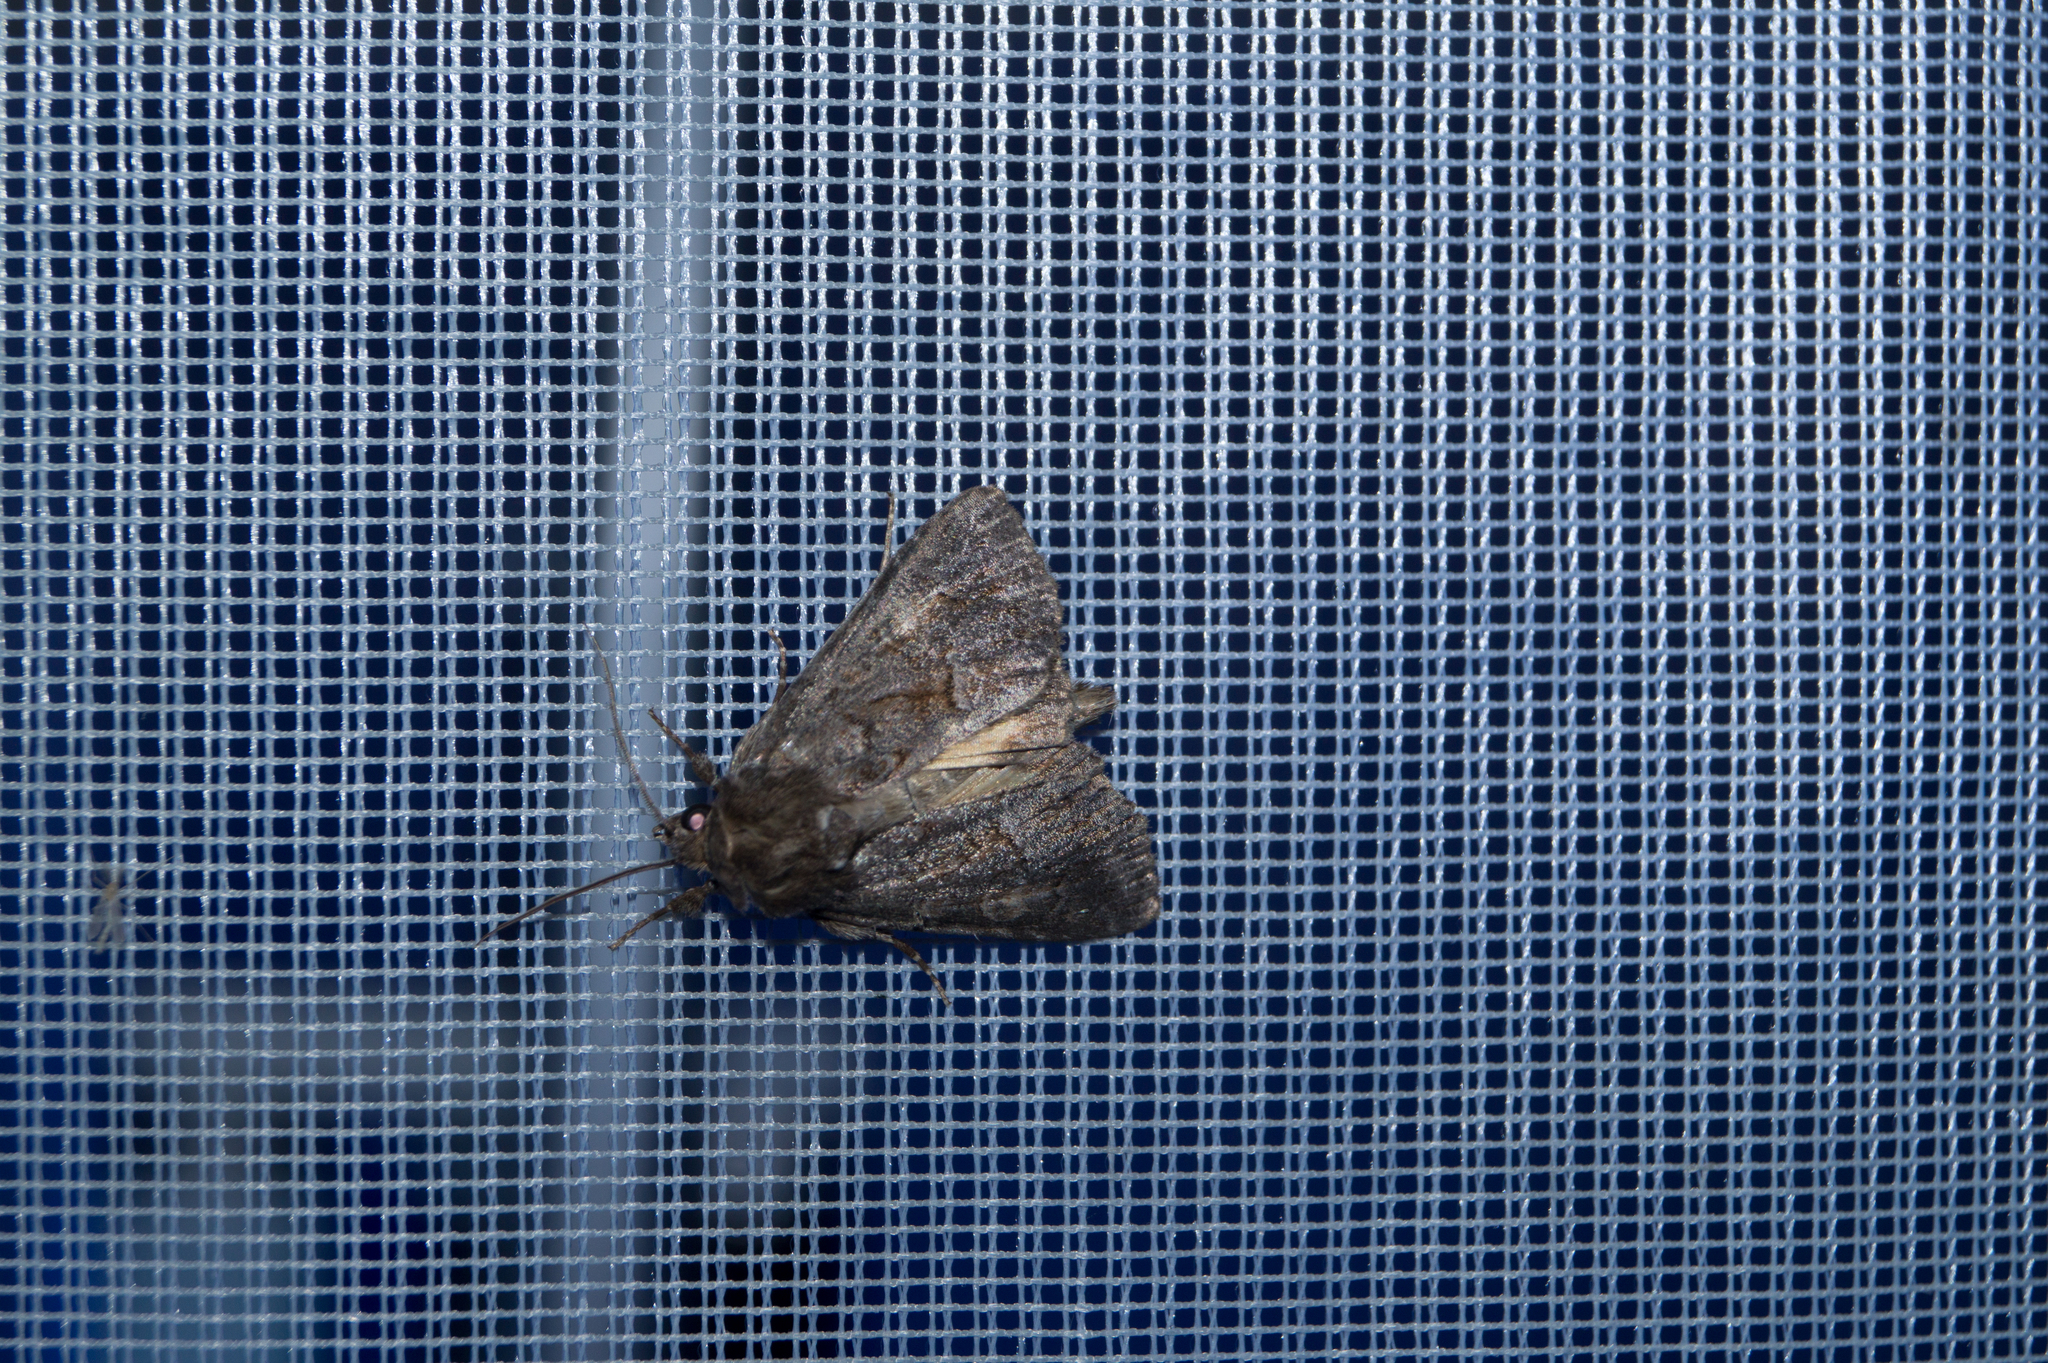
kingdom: Animalia
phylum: Arthropoda
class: Insecta
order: Lepidoptera
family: Noctuidae
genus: Thalpophila
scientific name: Thalpophila matura
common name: Straw underwing
